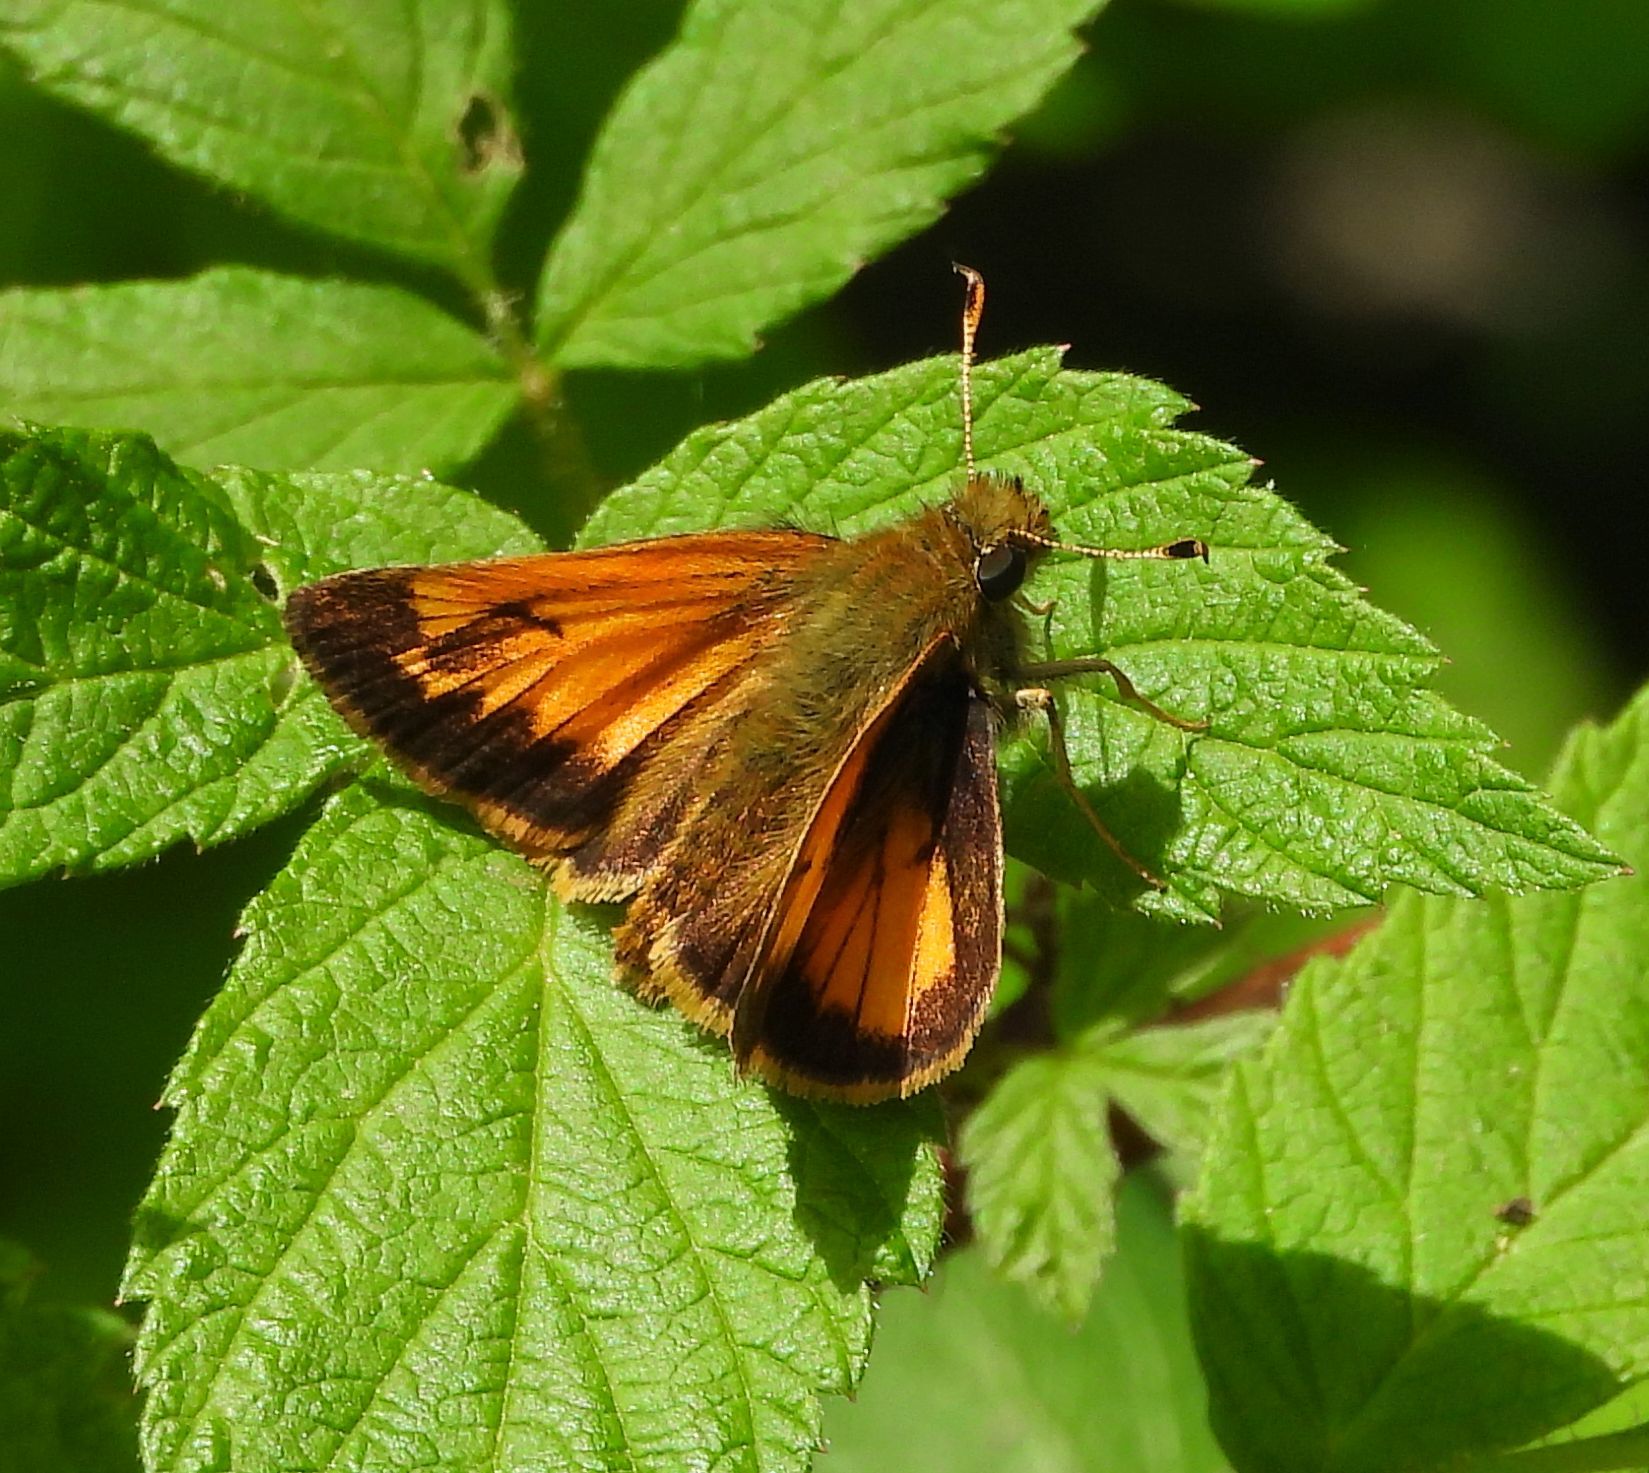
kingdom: Animalia
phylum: Arthropoda
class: Insecta
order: Lepidoptera
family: Hesperiidae
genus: Lon
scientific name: Lon hobomok
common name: Hobomok skipper
